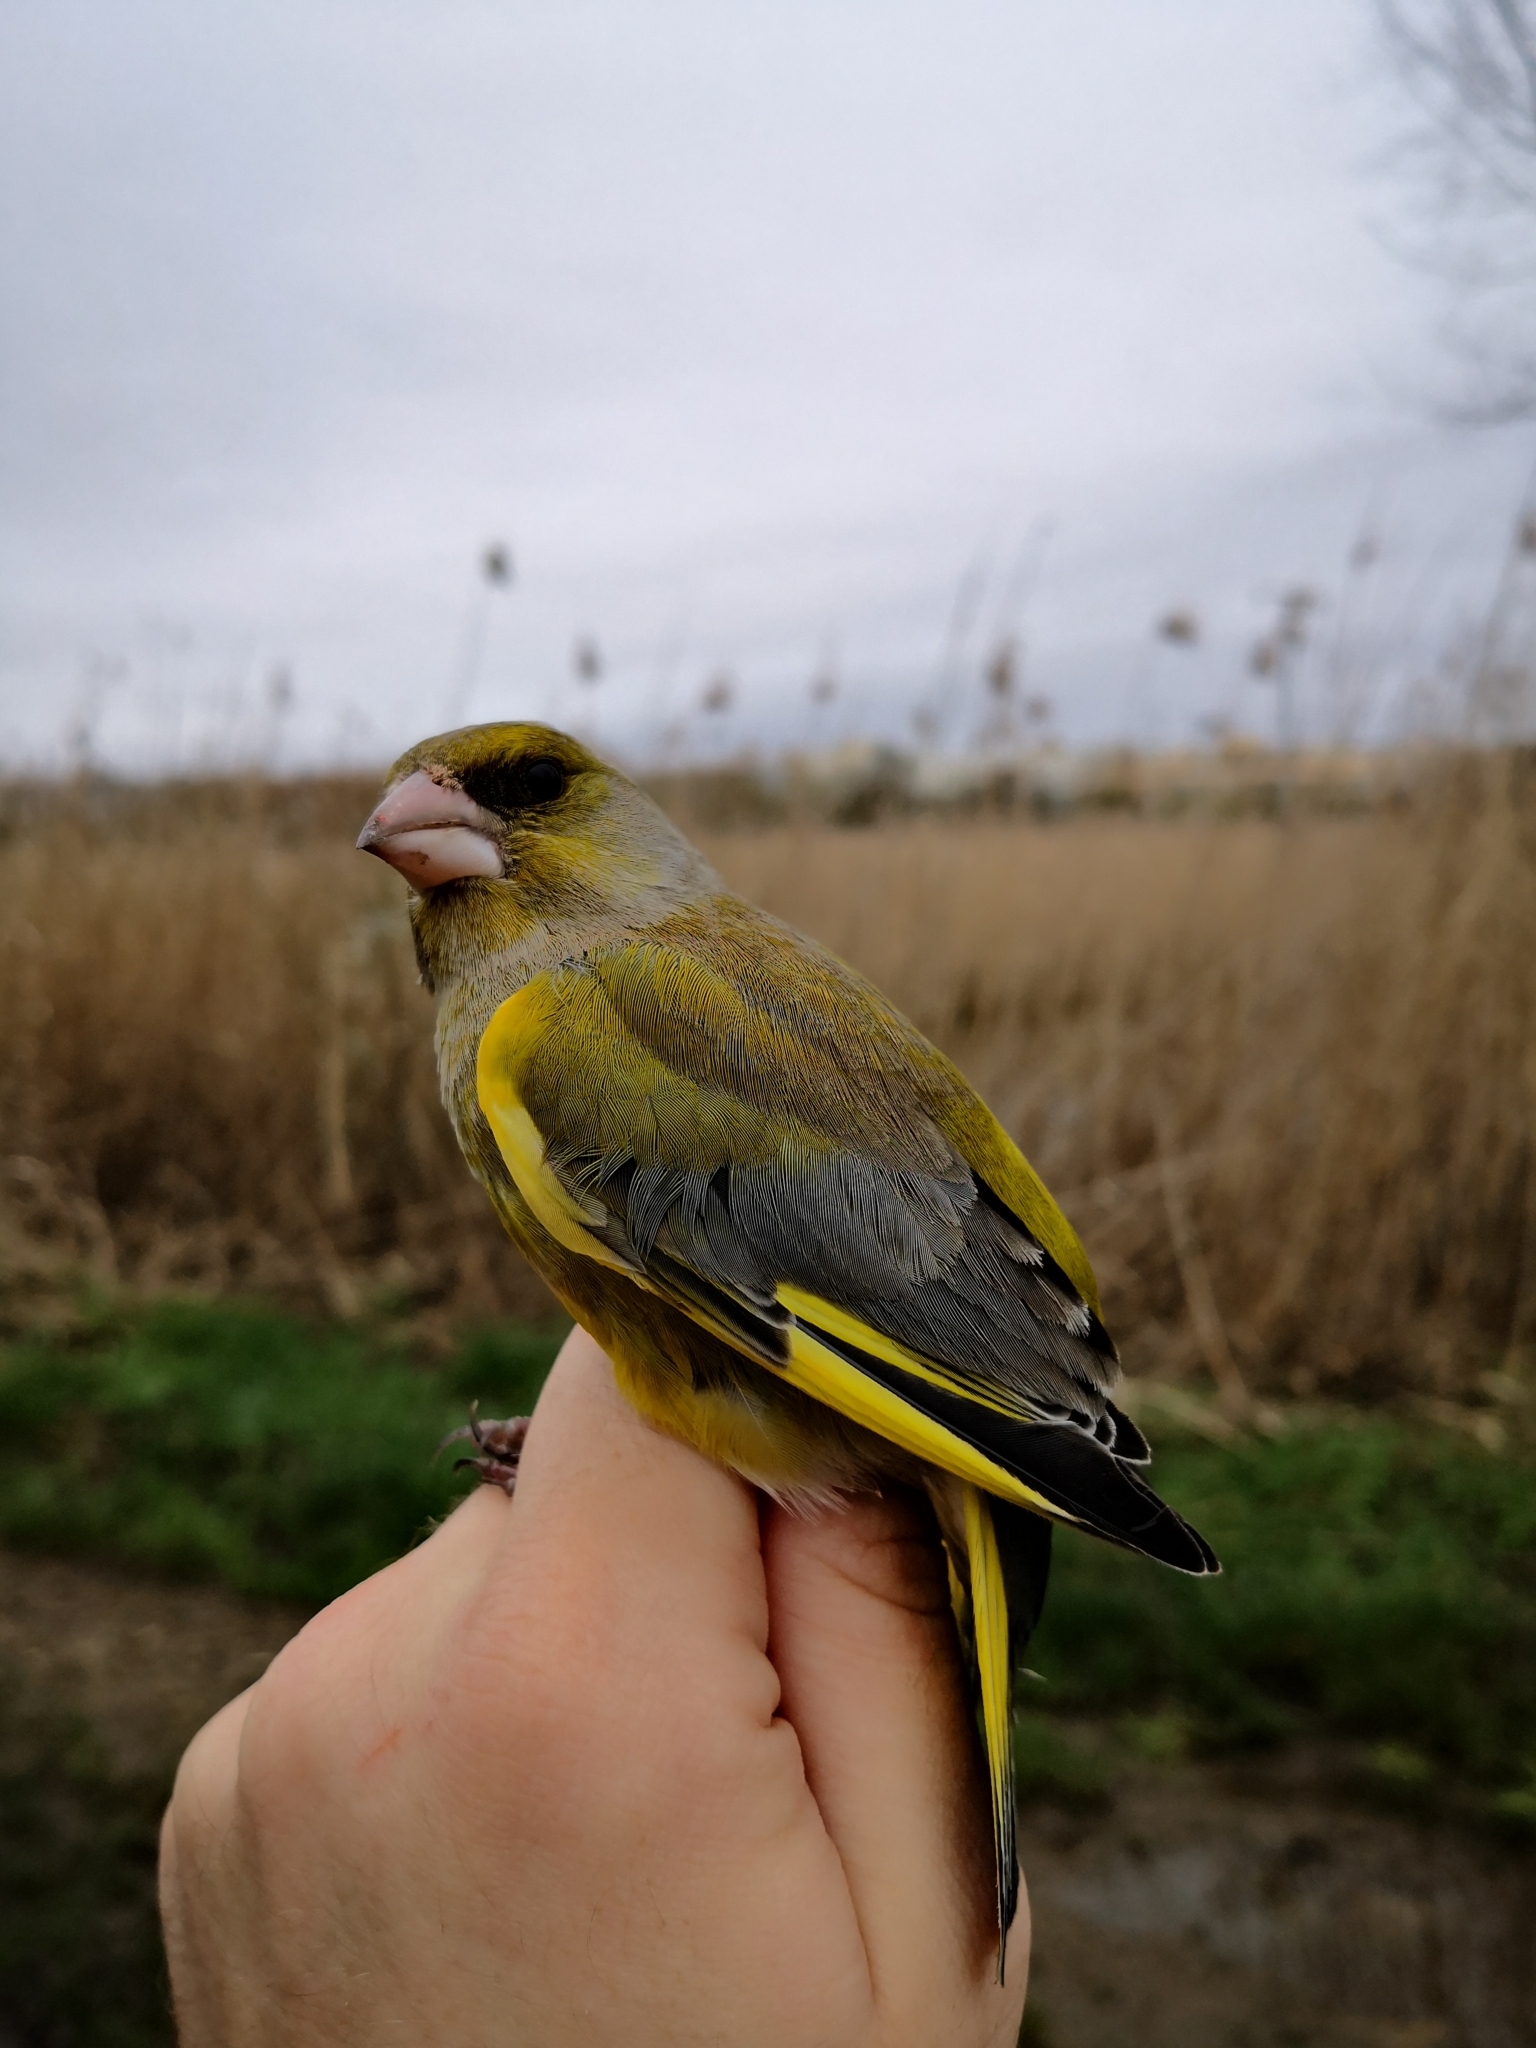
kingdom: Plantae
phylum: Tracheophyta
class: Liliopsida
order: Poales
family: Poaceae
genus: Chloris
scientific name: Chloris chloris
